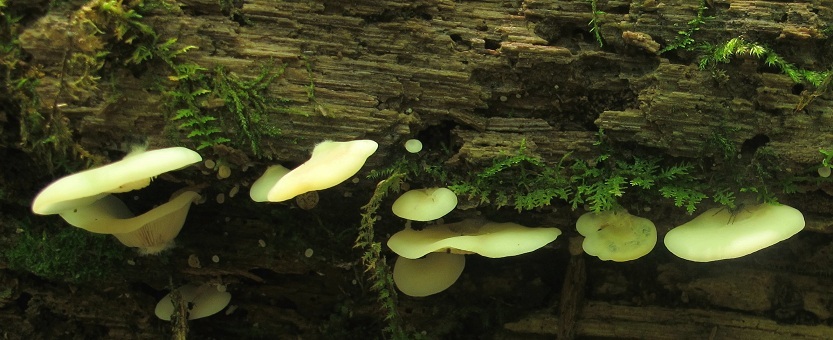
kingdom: Fungi
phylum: Basidiomycota
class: Agaricomycetes
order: Agaricales
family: Crepidotaceae
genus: Crepidotus
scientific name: Crepidotus applanatus
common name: Flat crep
